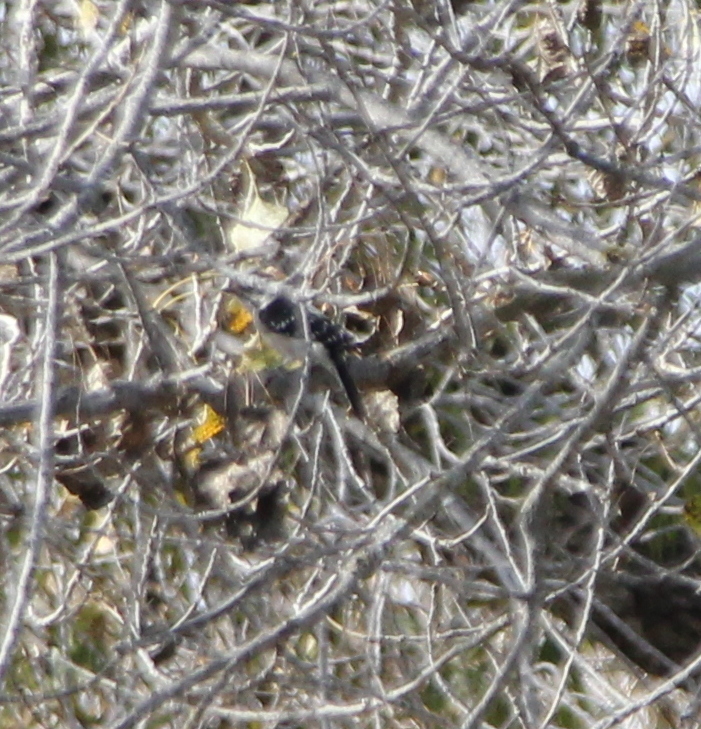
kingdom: Animalia
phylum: Chordata
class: Aves
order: Piciformes
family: Picidae
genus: Dryobates
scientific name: Dryobates pubescens
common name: Downy woodpecker
